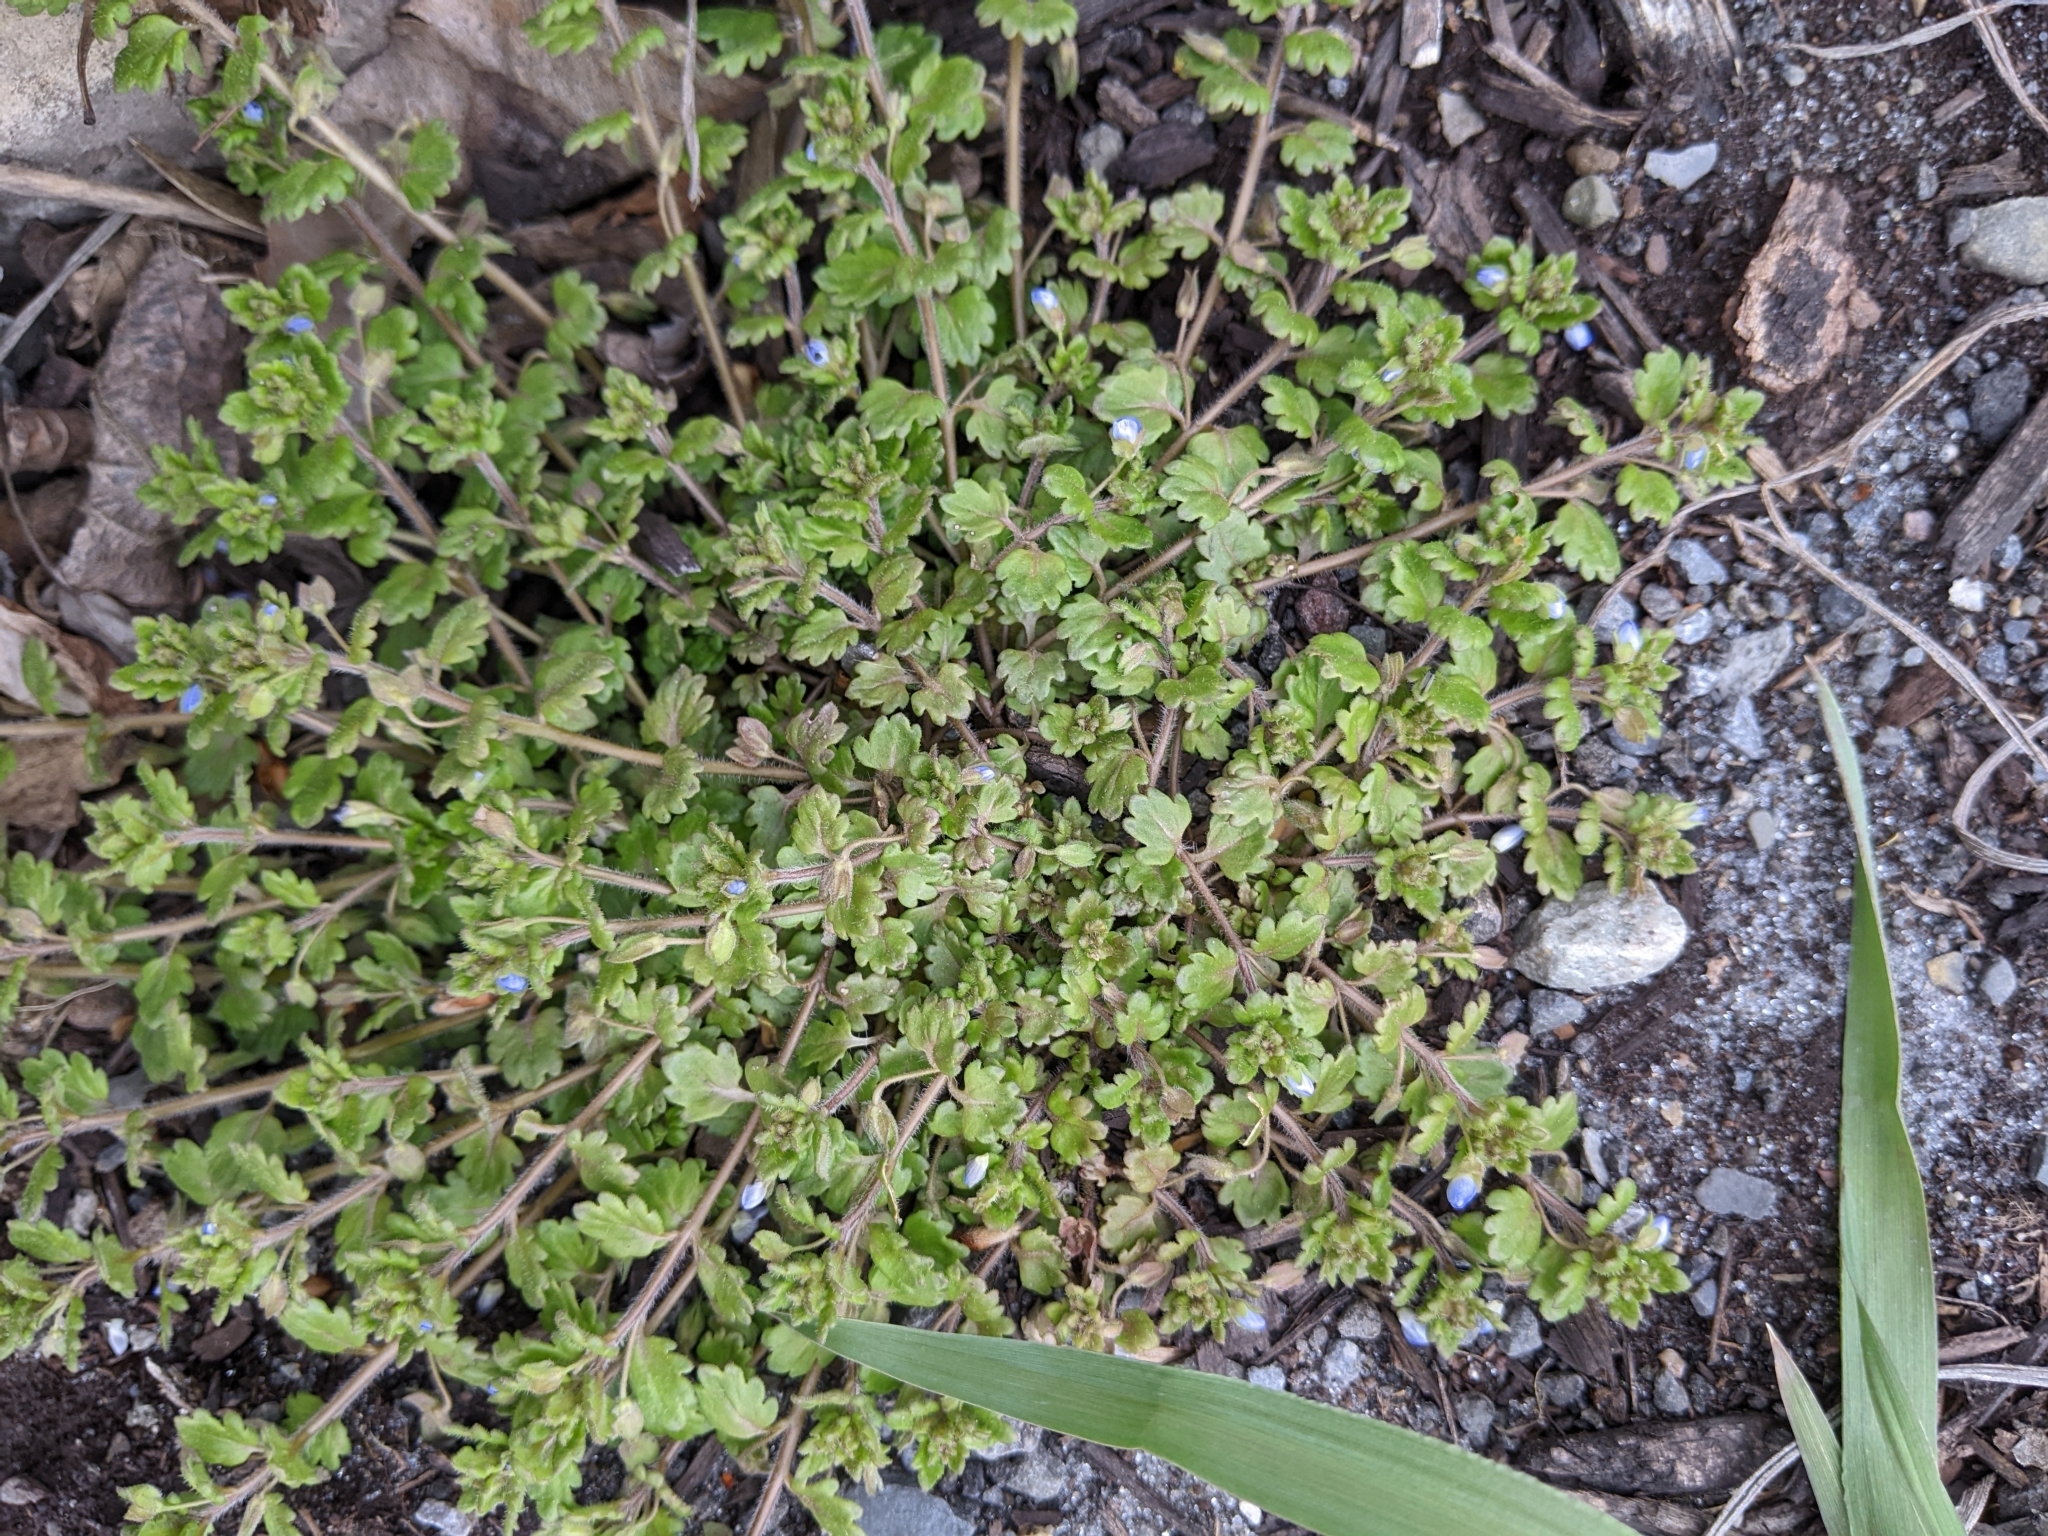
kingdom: Plantae
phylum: Tracheophyta
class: Magnoliopsida
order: Lamiales
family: Plantaginaceae
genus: Veronica
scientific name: Veronica polita
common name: Grey field-speedwell
